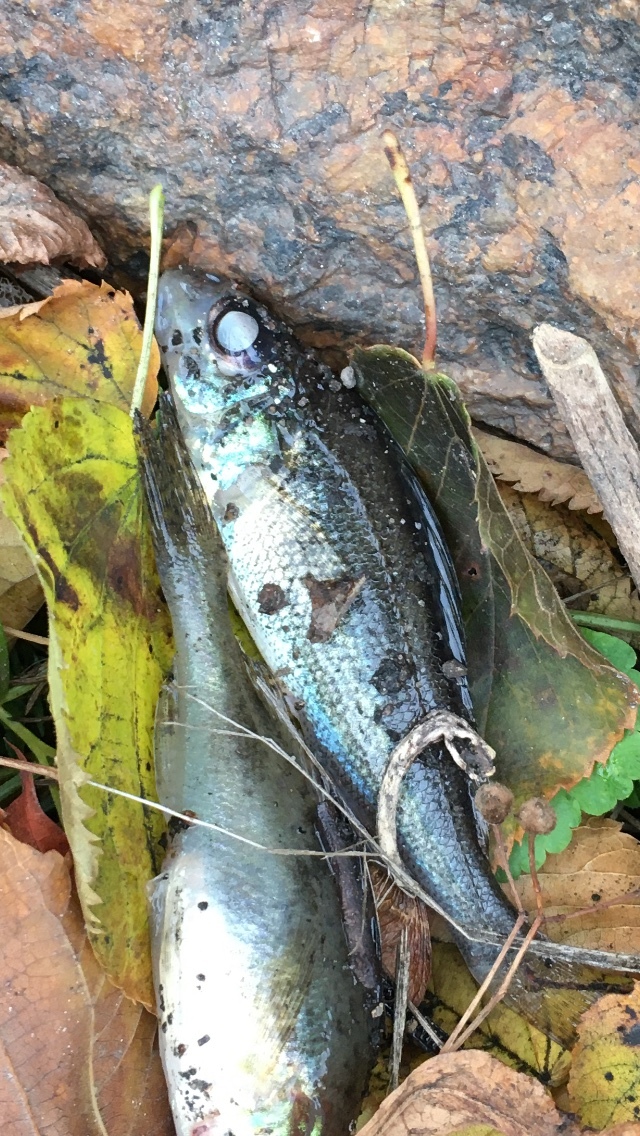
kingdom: Animalia
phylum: Chordata
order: Perciformes
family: Percidae
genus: Gymnocephalus
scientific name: Gymnocephalus cernua
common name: Ruffe
